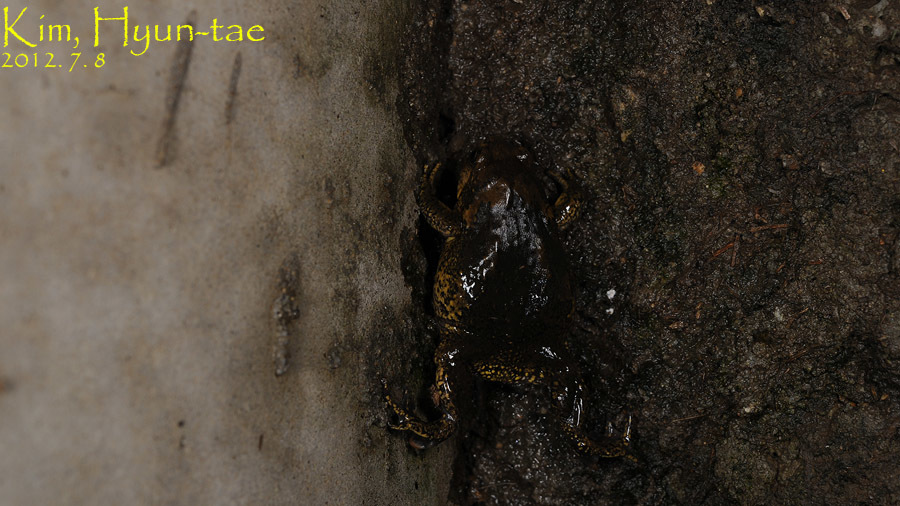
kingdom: Animalia
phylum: Chordata
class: Amphibia
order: Anura
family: Microhylidae
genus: Kaloula
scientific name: Kaloula borealis
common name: Boreal digging frog
